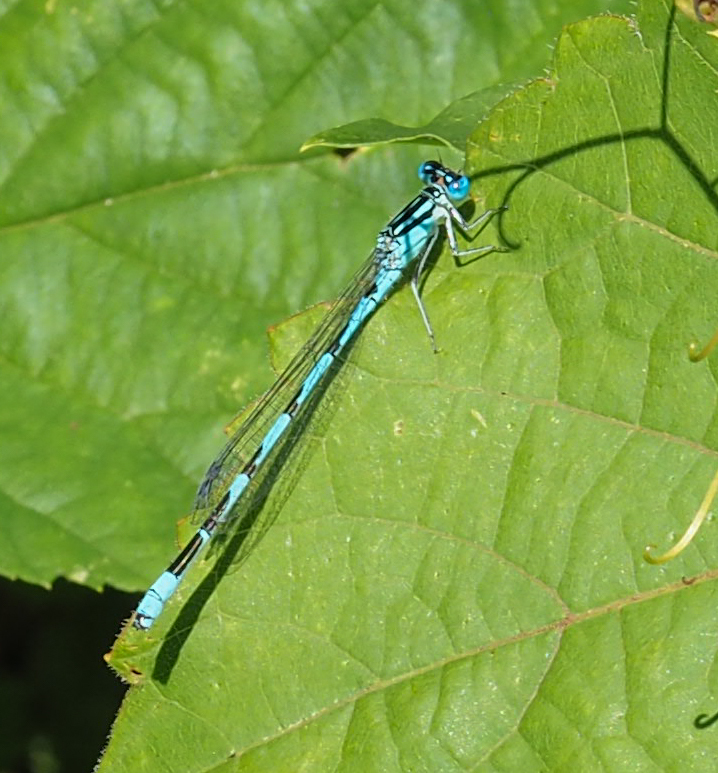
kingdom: Animalia
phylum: Arthropoda
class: Insecta
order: Odonata
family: Coenagrionidae
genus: Enallagma
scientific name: Enallagma durum
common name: Big bluet
